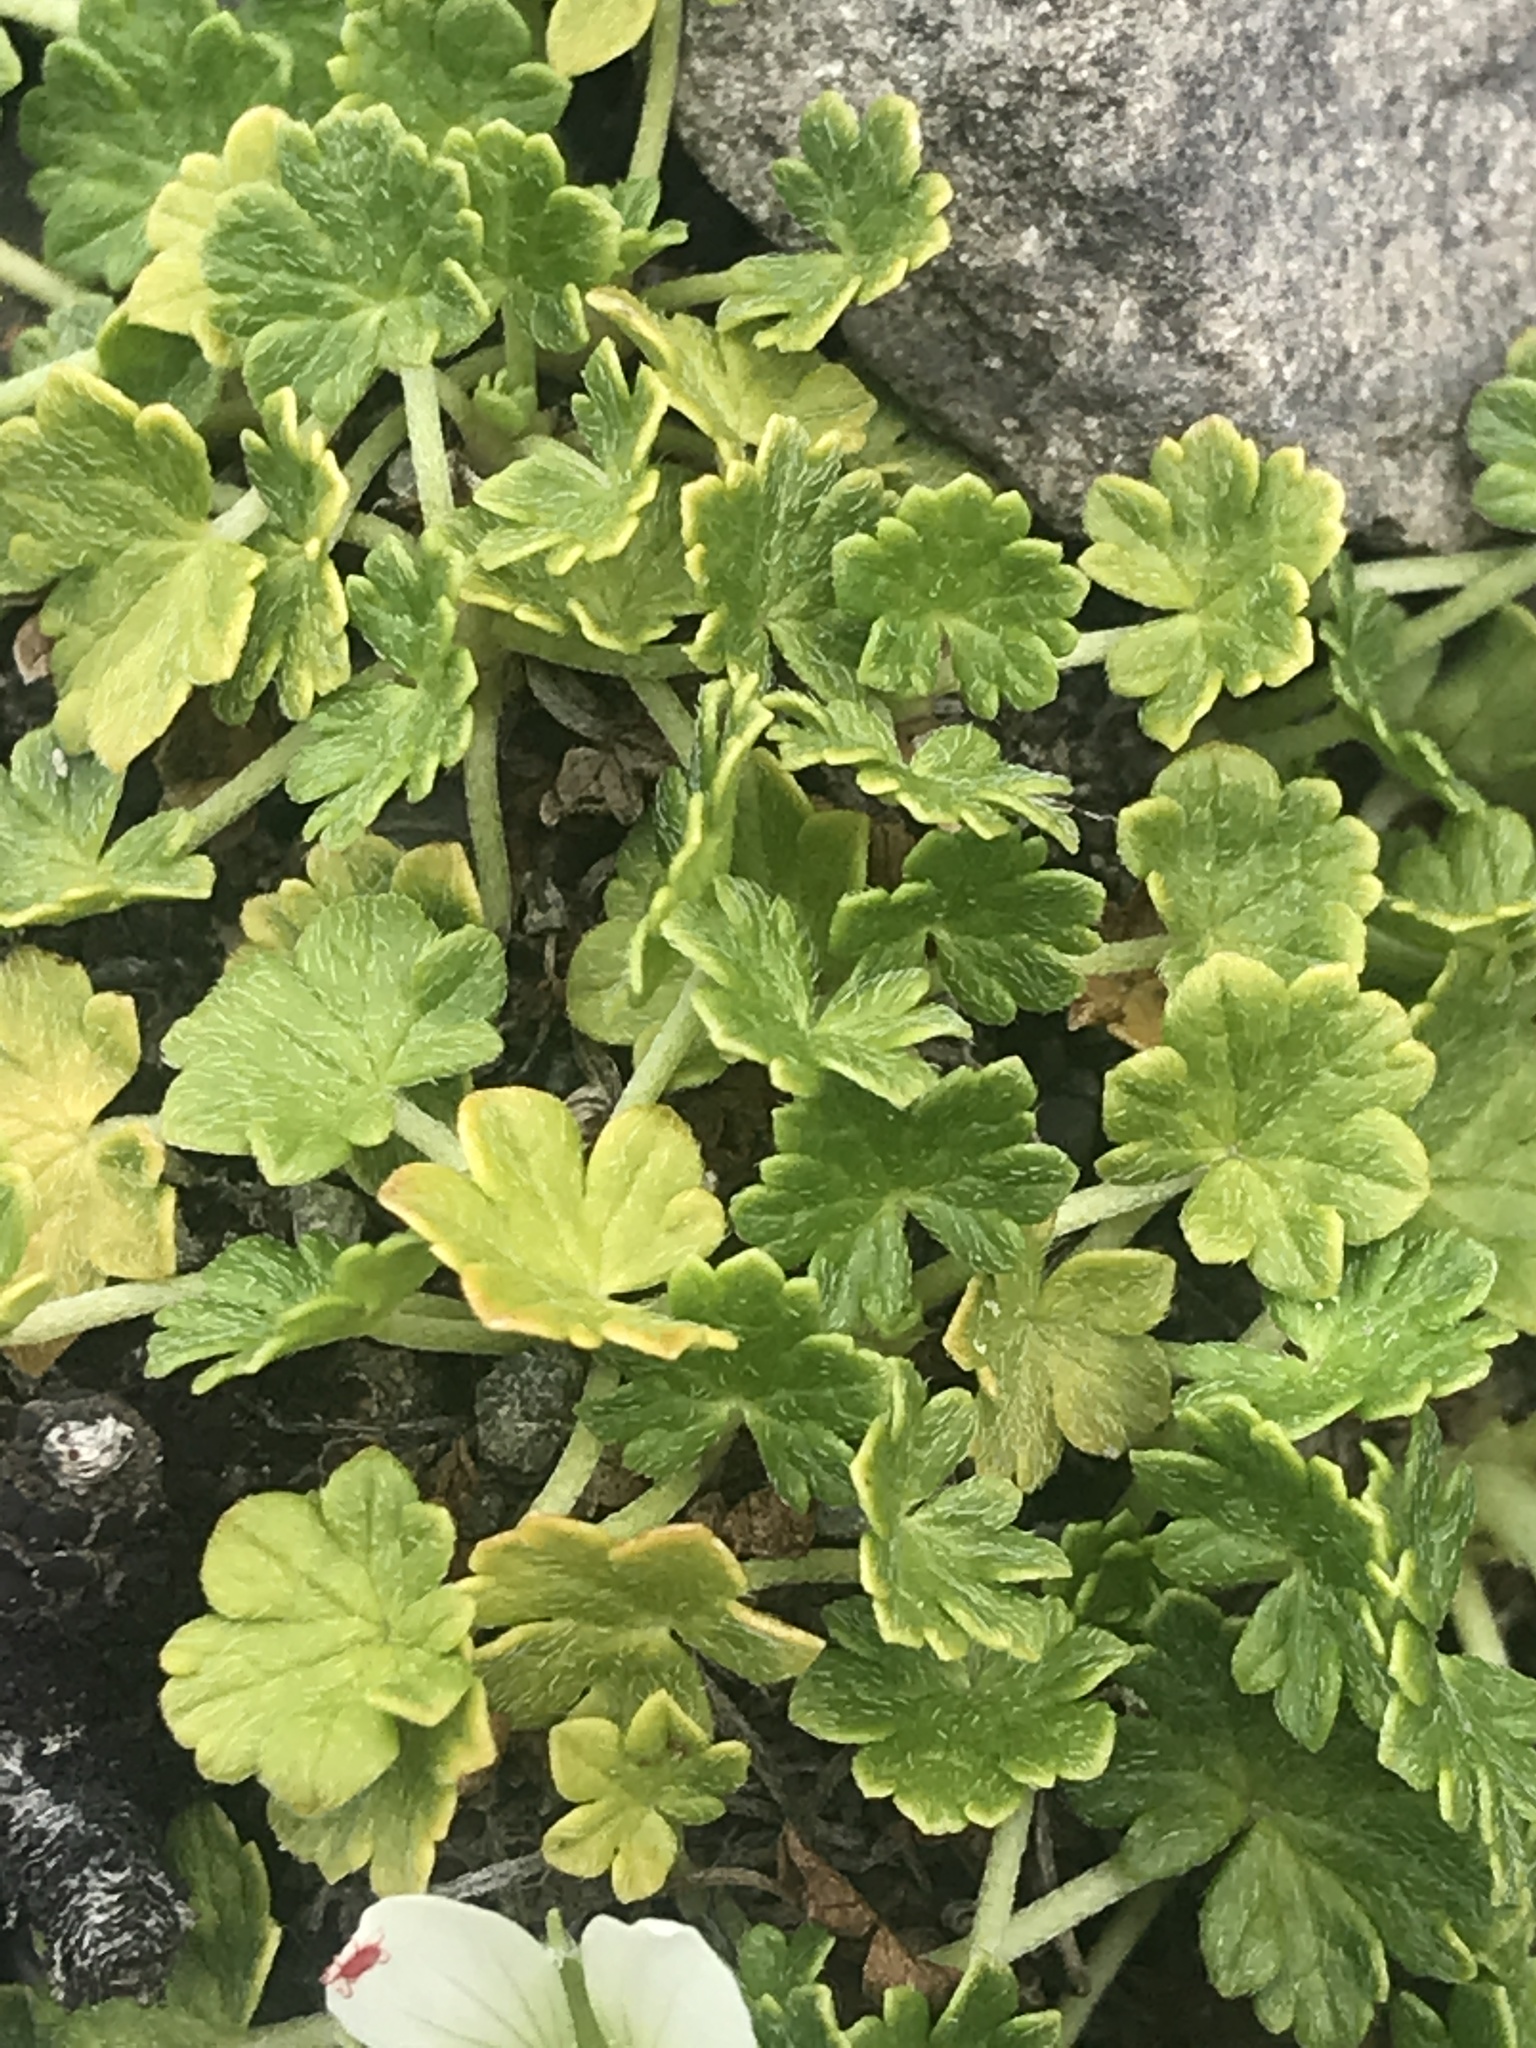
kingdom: Plantae
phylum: Tracheophyta
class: Magnoliopsida
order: Geraniales
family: Geraniaceae
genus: Geranium
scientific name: Geranium brevicaule
